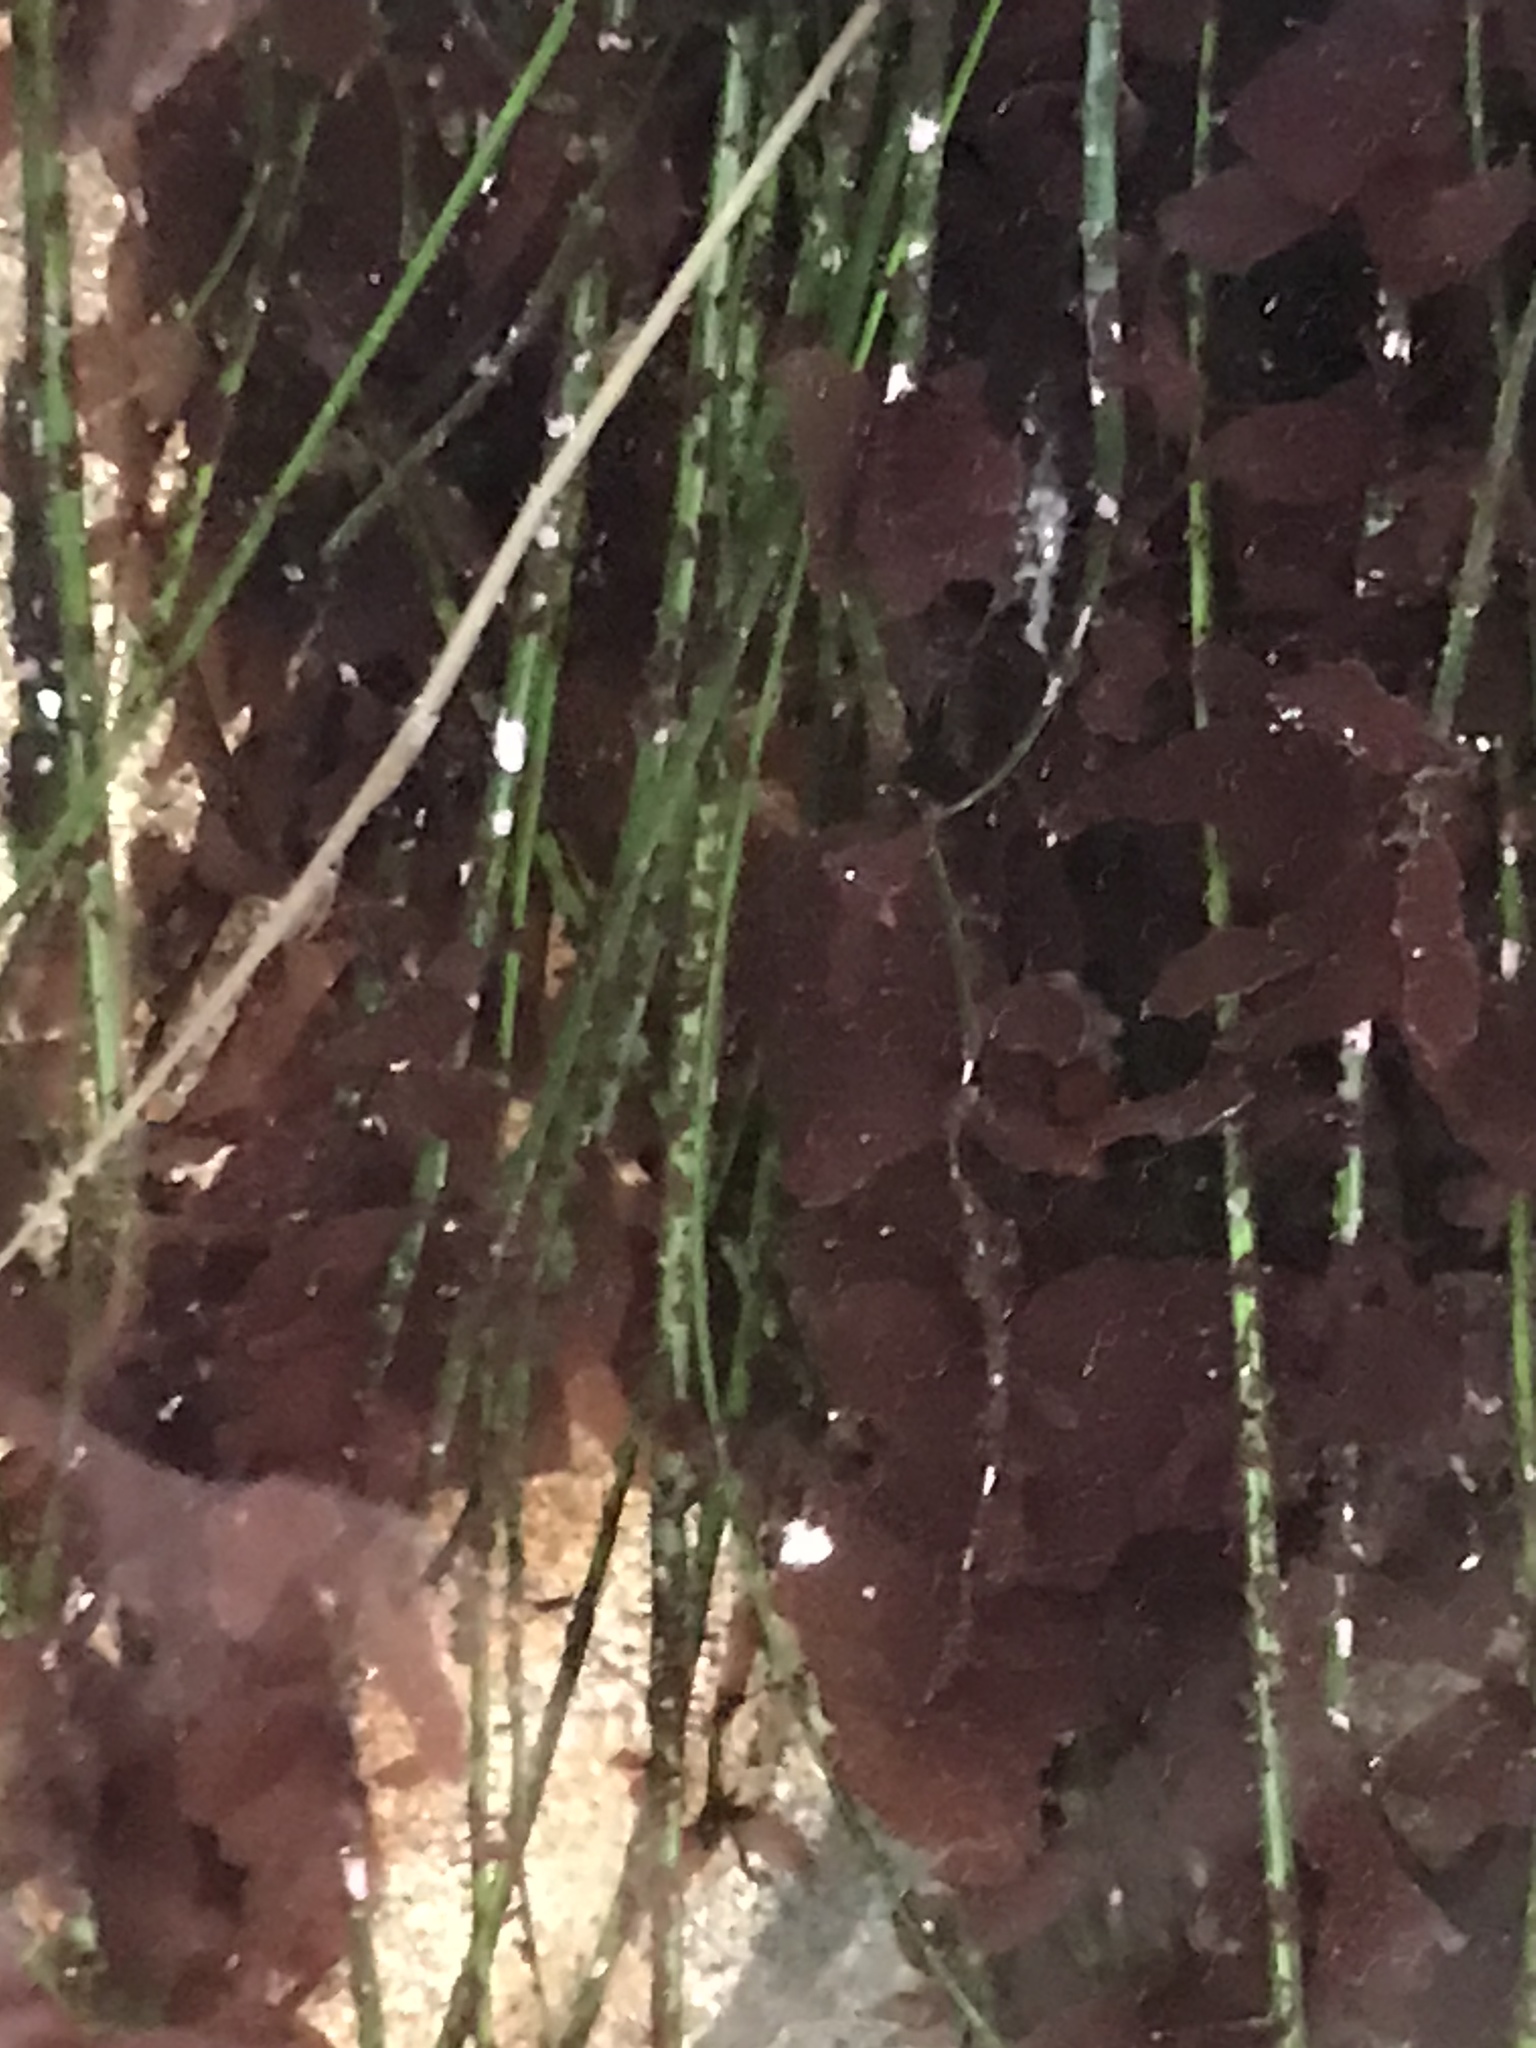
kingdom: Plantae
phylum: Rhodophyta
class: Compsopogonophyceae
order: Erythropeltidales
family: Erythrotrichiaceae
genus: Smithora
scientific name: Smithora naiadum
